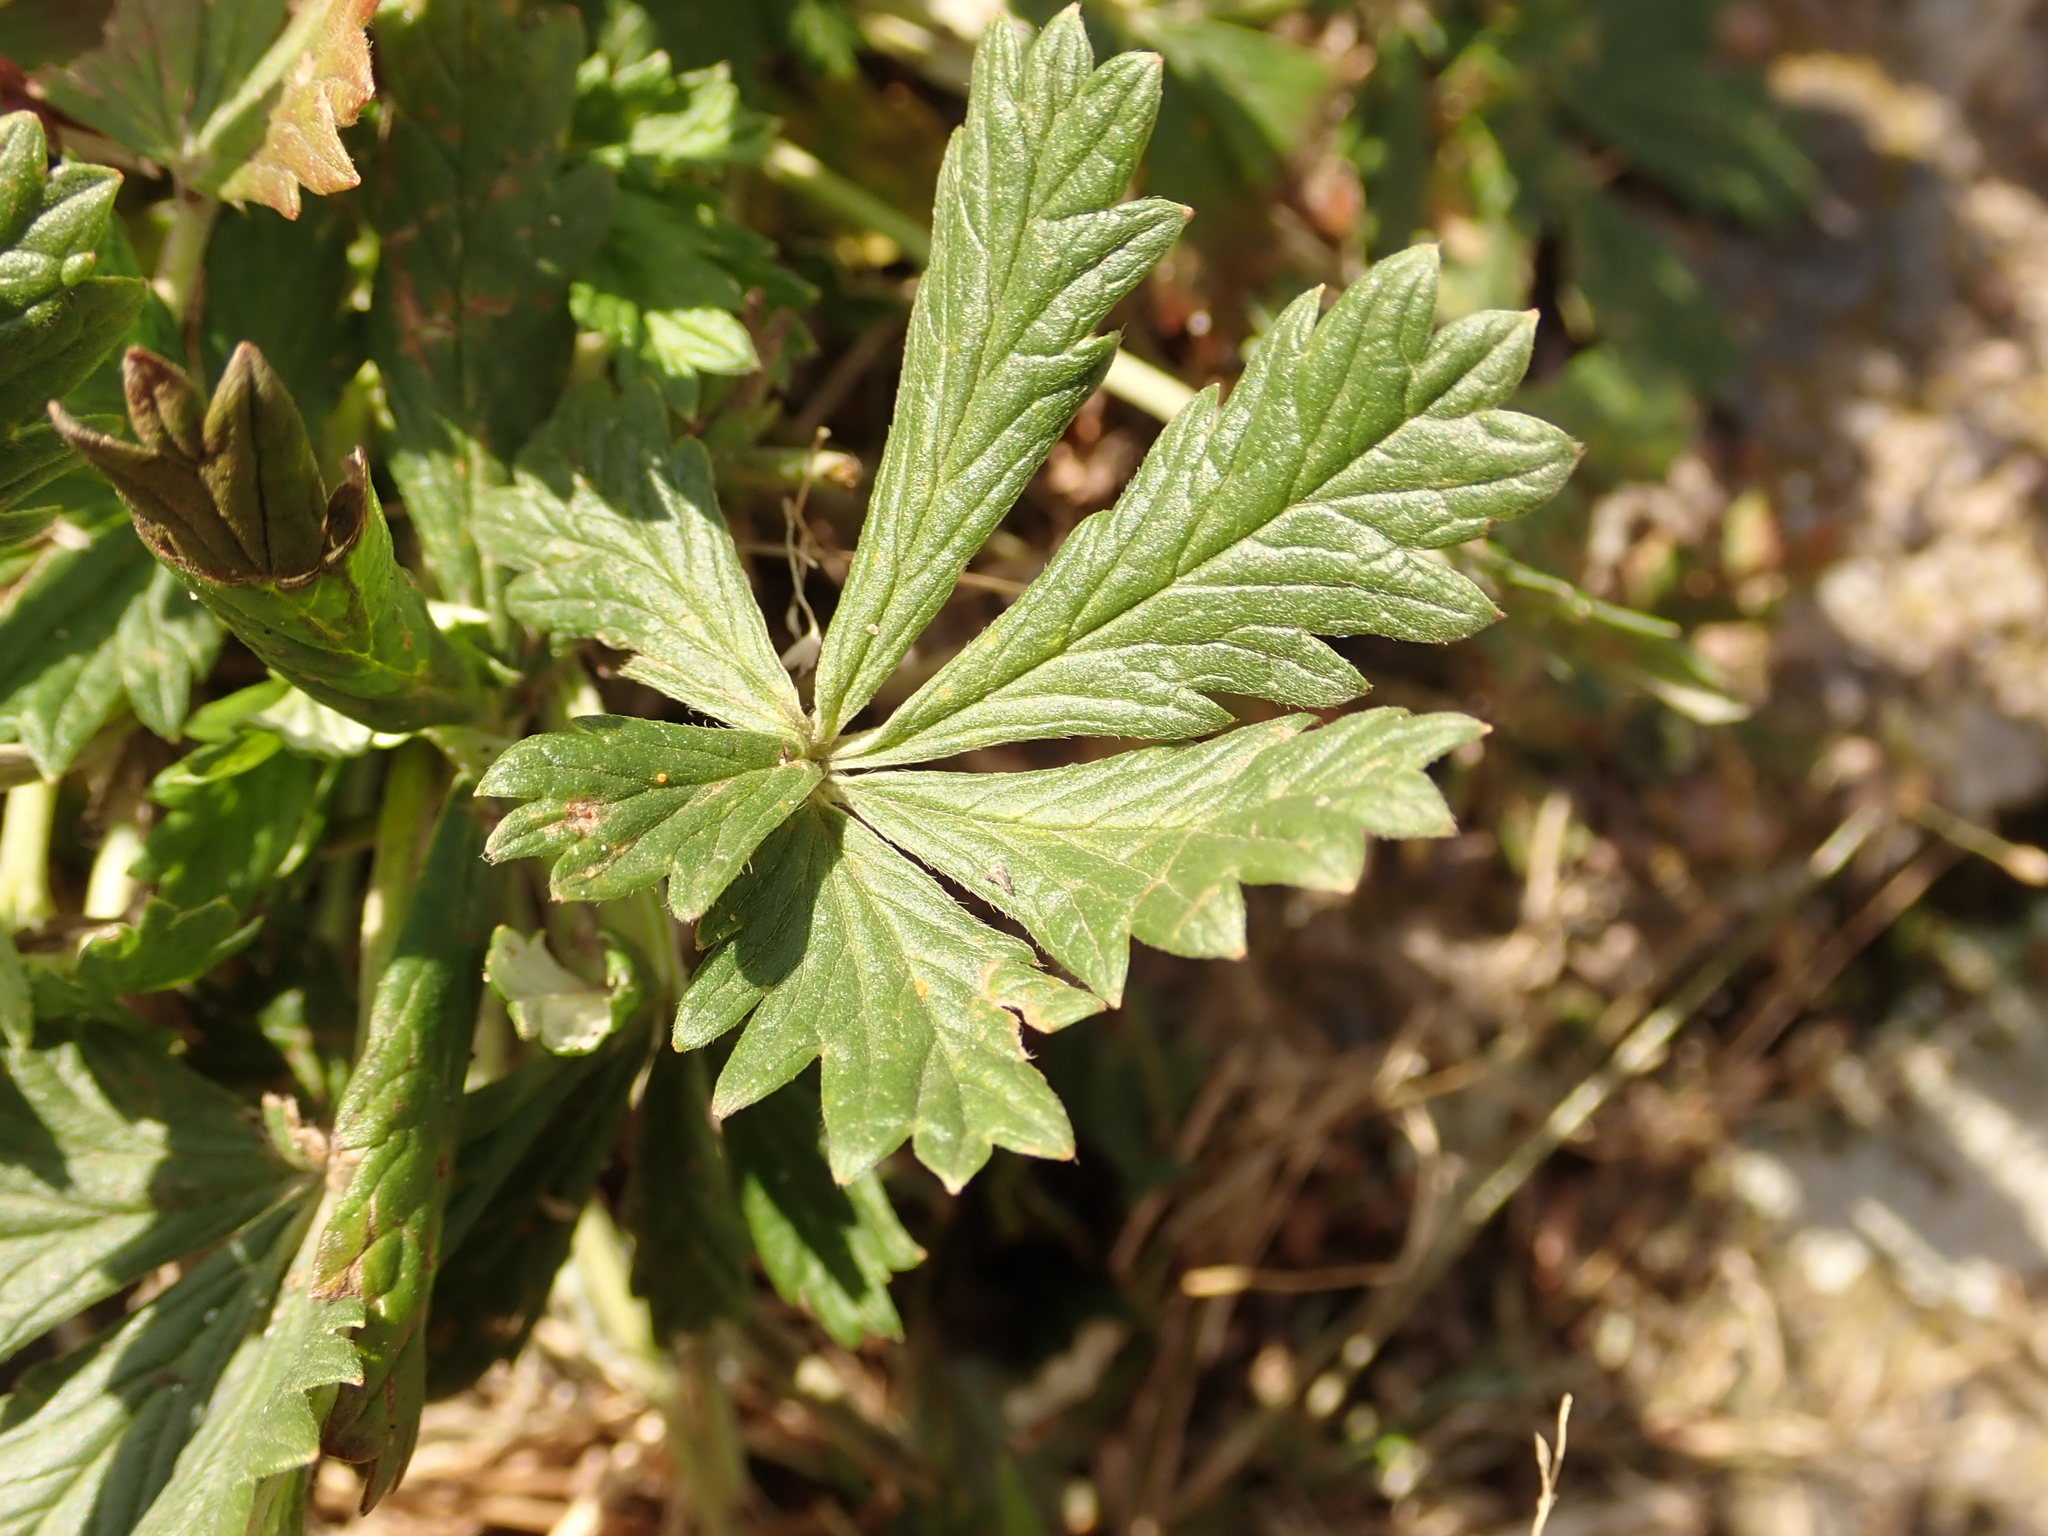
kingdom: Plantae
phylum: Tracheophyta
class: Magnoliopsida
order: Rosales
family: Rosaceae
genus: Potentilla
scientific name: Potentilla argentea
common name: Hoary cinquefoil
